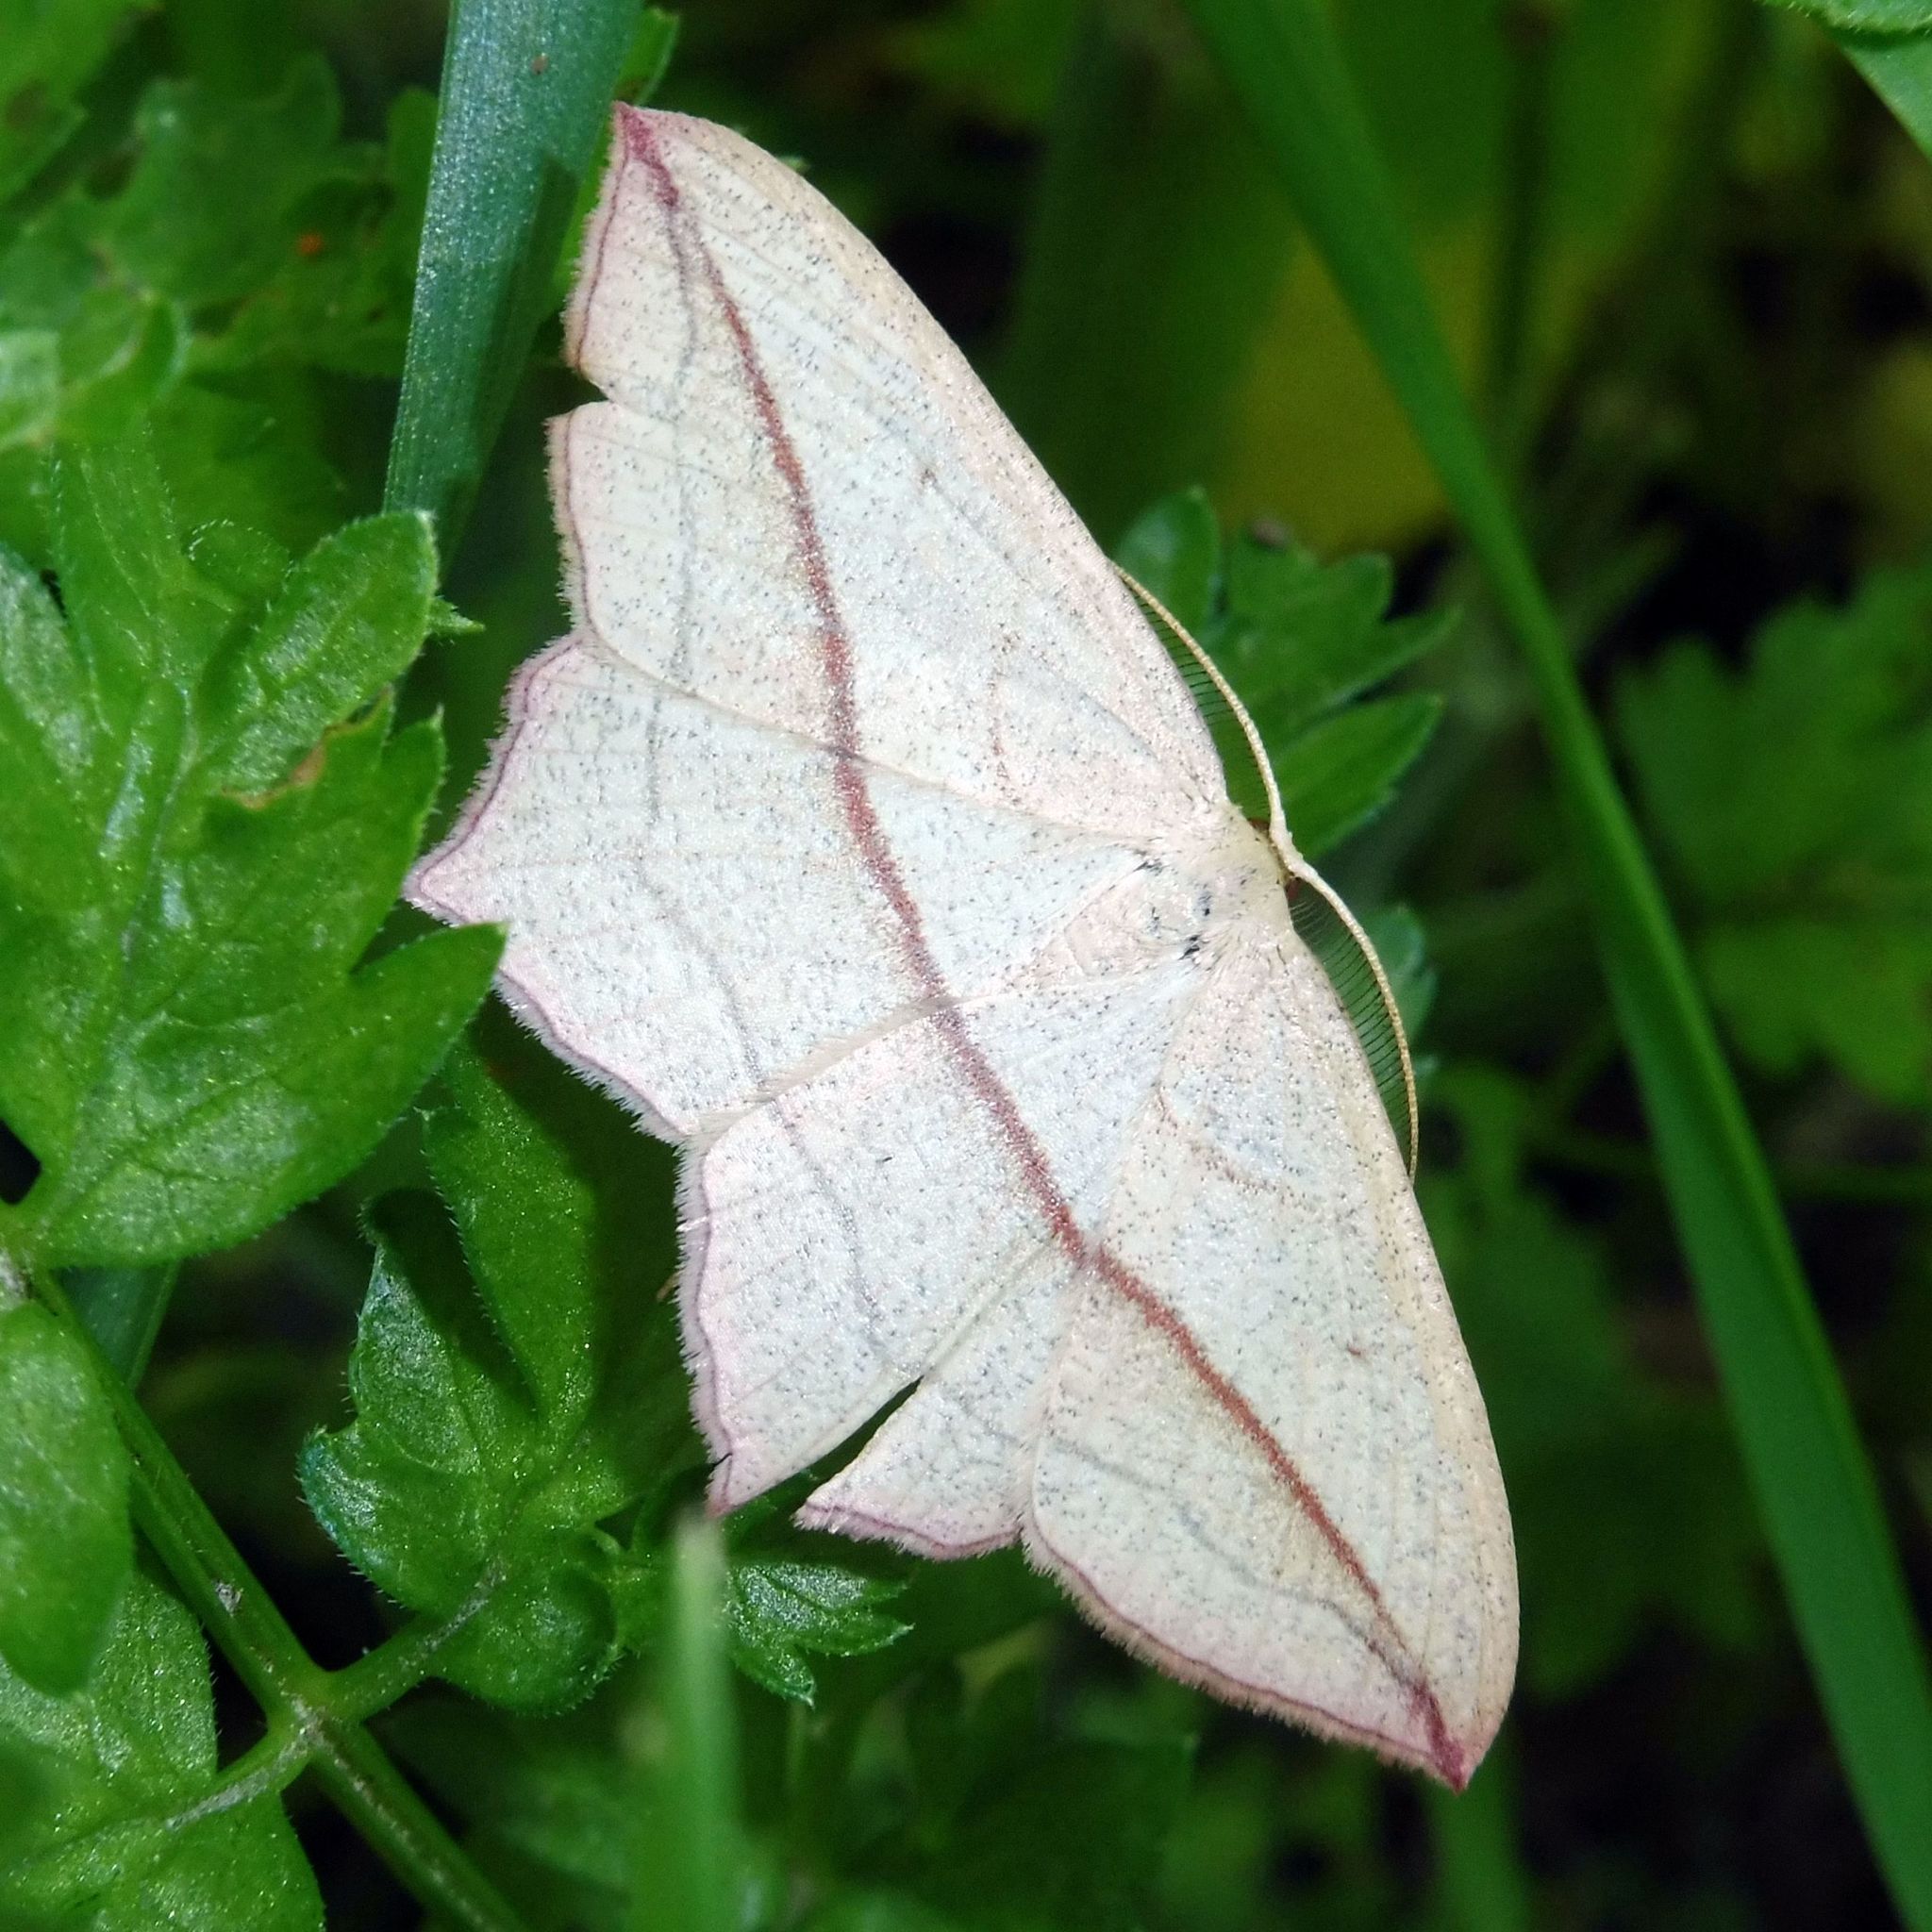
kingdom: Animalia
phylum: Arthropoda
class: Insecta
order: Lepidoptera
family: Geometridae
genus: Timandra
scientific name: Timandra comae
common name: Blood-vein
